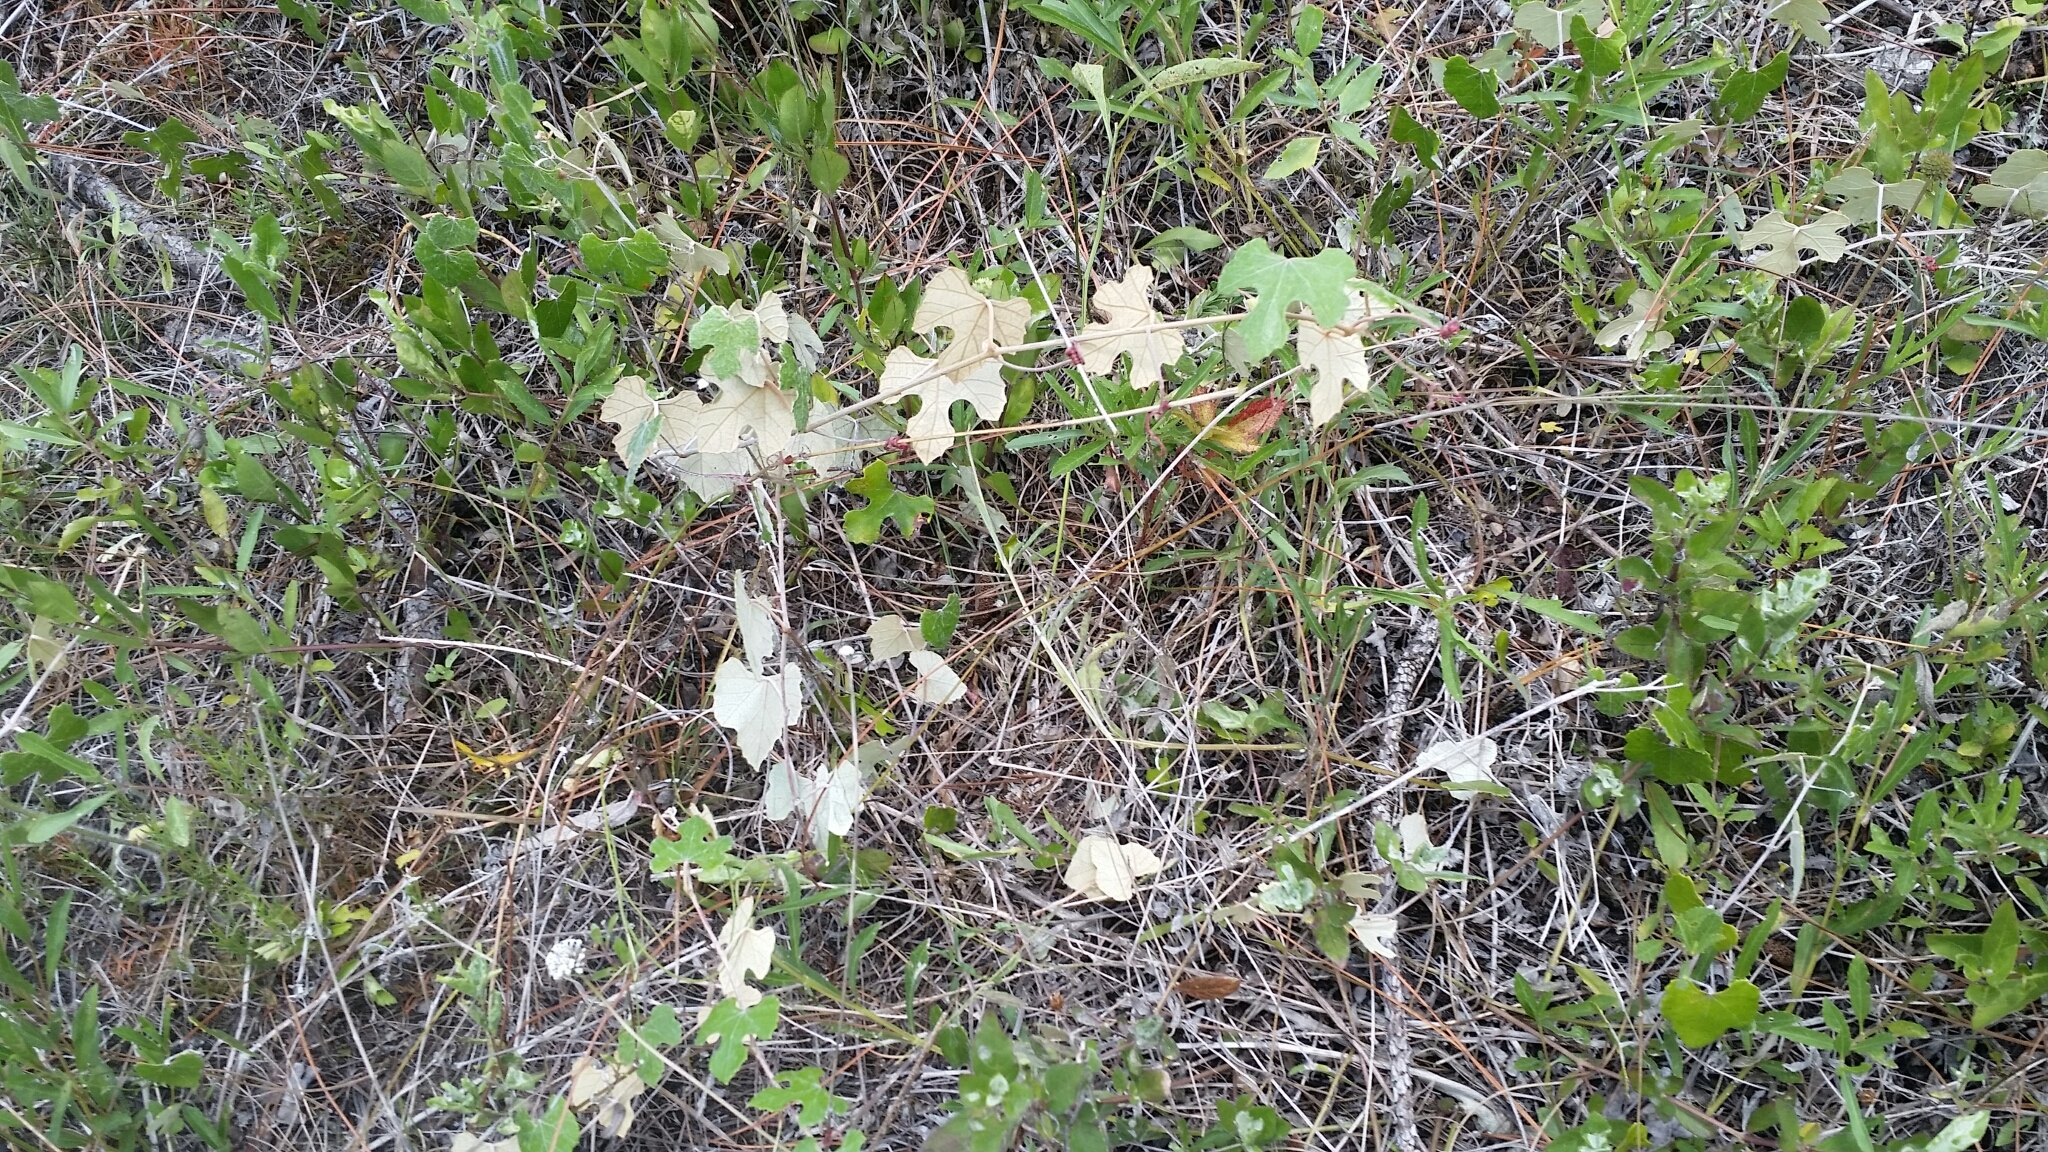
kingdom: Plantae
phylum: Tracheophyta
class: Magnoliopsida
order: Vitales
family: Vitaceae
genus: Vitis
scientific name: Vitis shuttleworthii
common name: Caloosa grape
